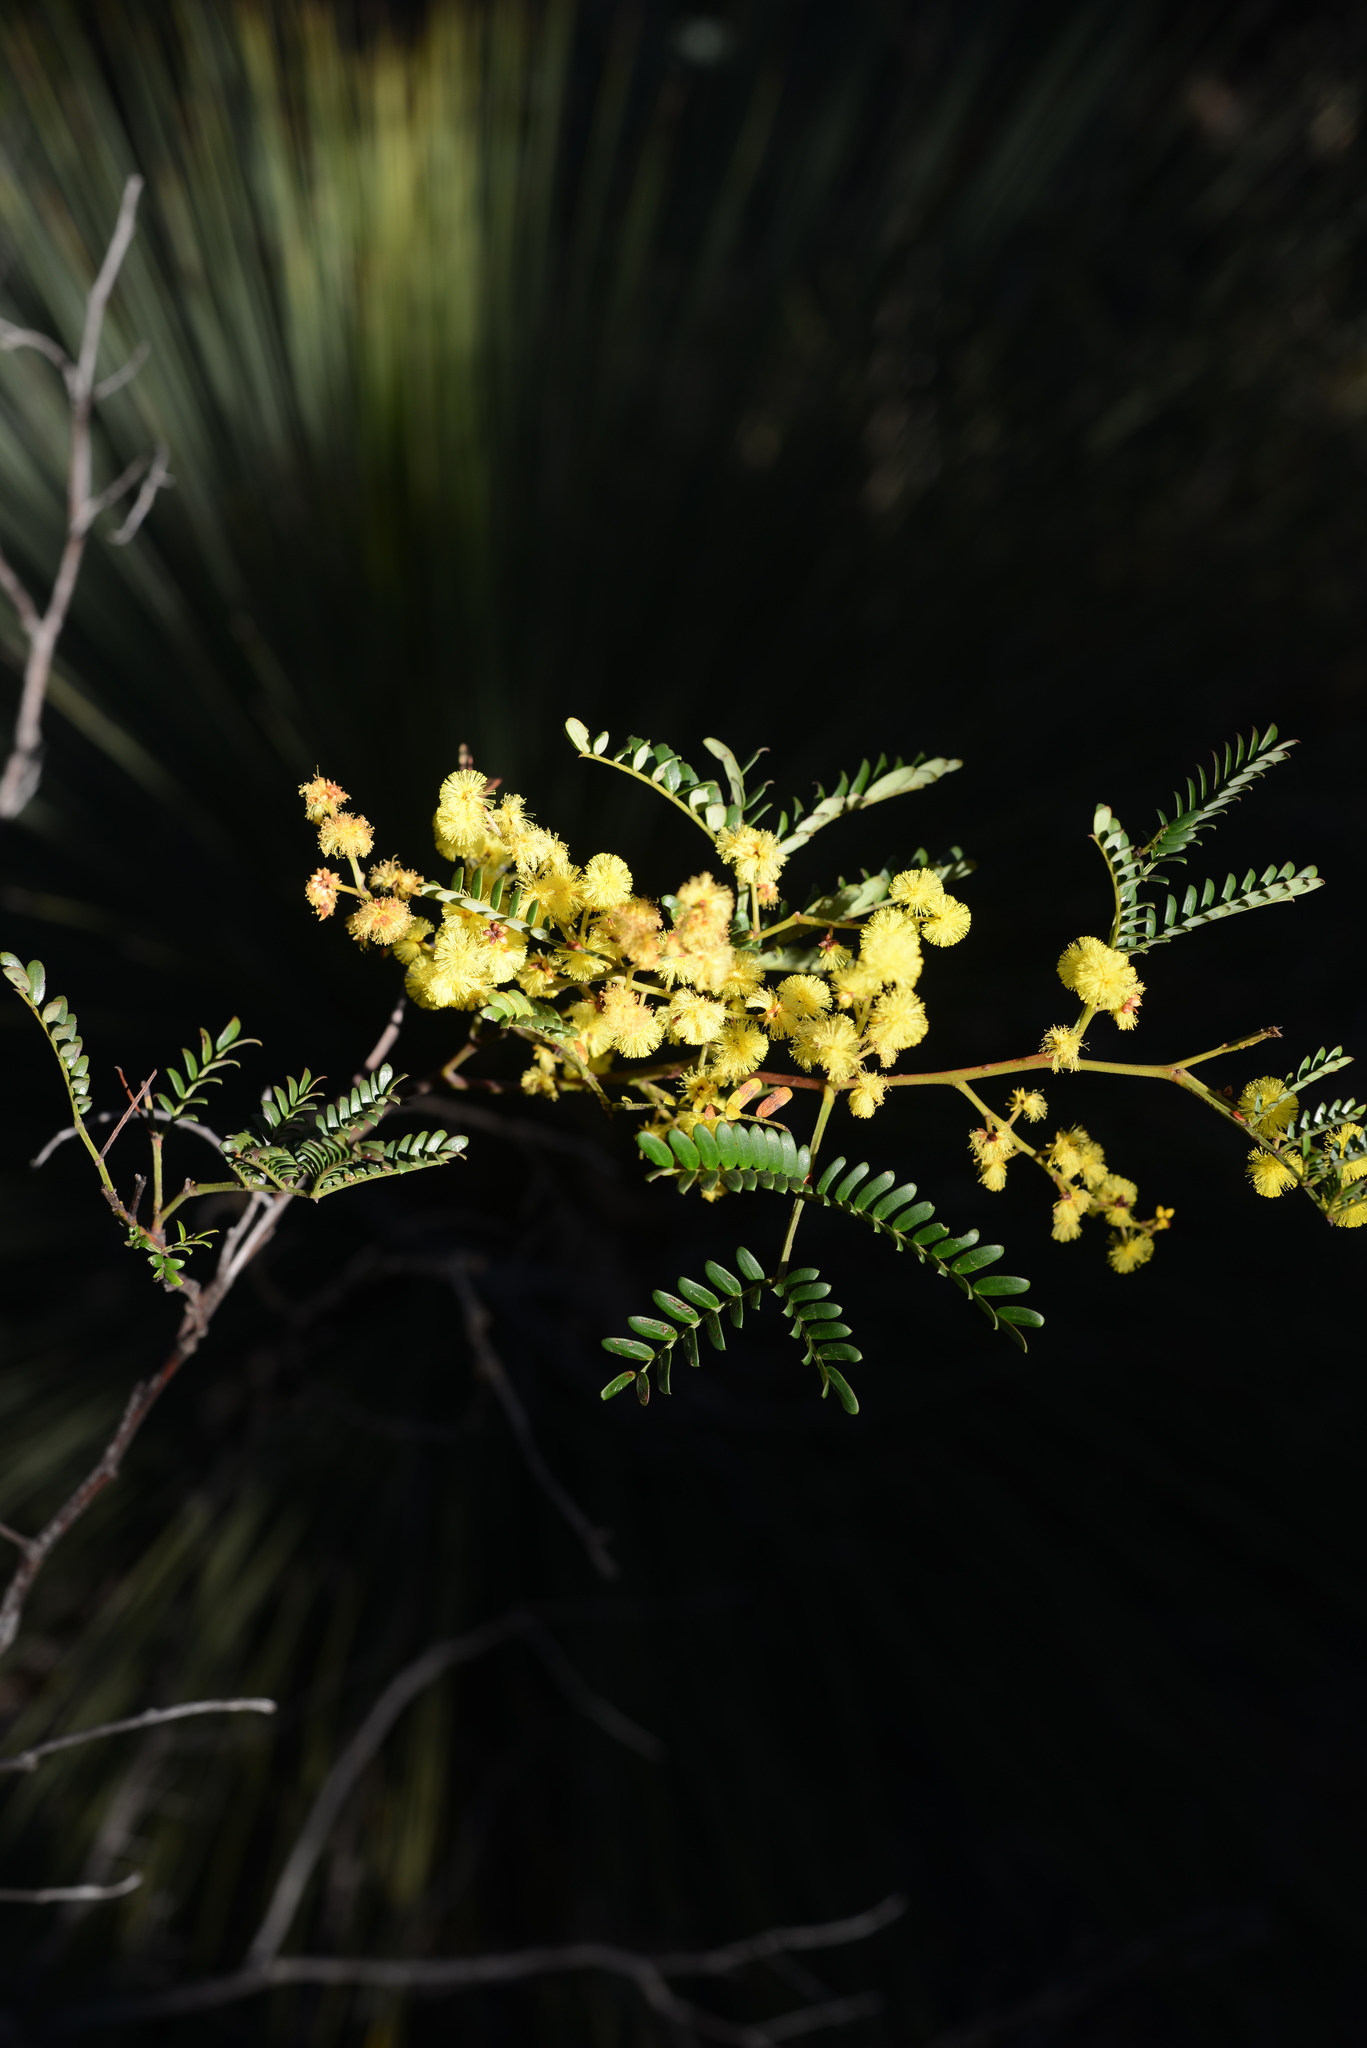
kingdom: Plantae
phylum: Tracheophyta
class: Magnoliopsida
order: Fabales
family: Fabaceae
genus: Acacia
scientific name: Acacia terminalis
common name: Cedar wattle
